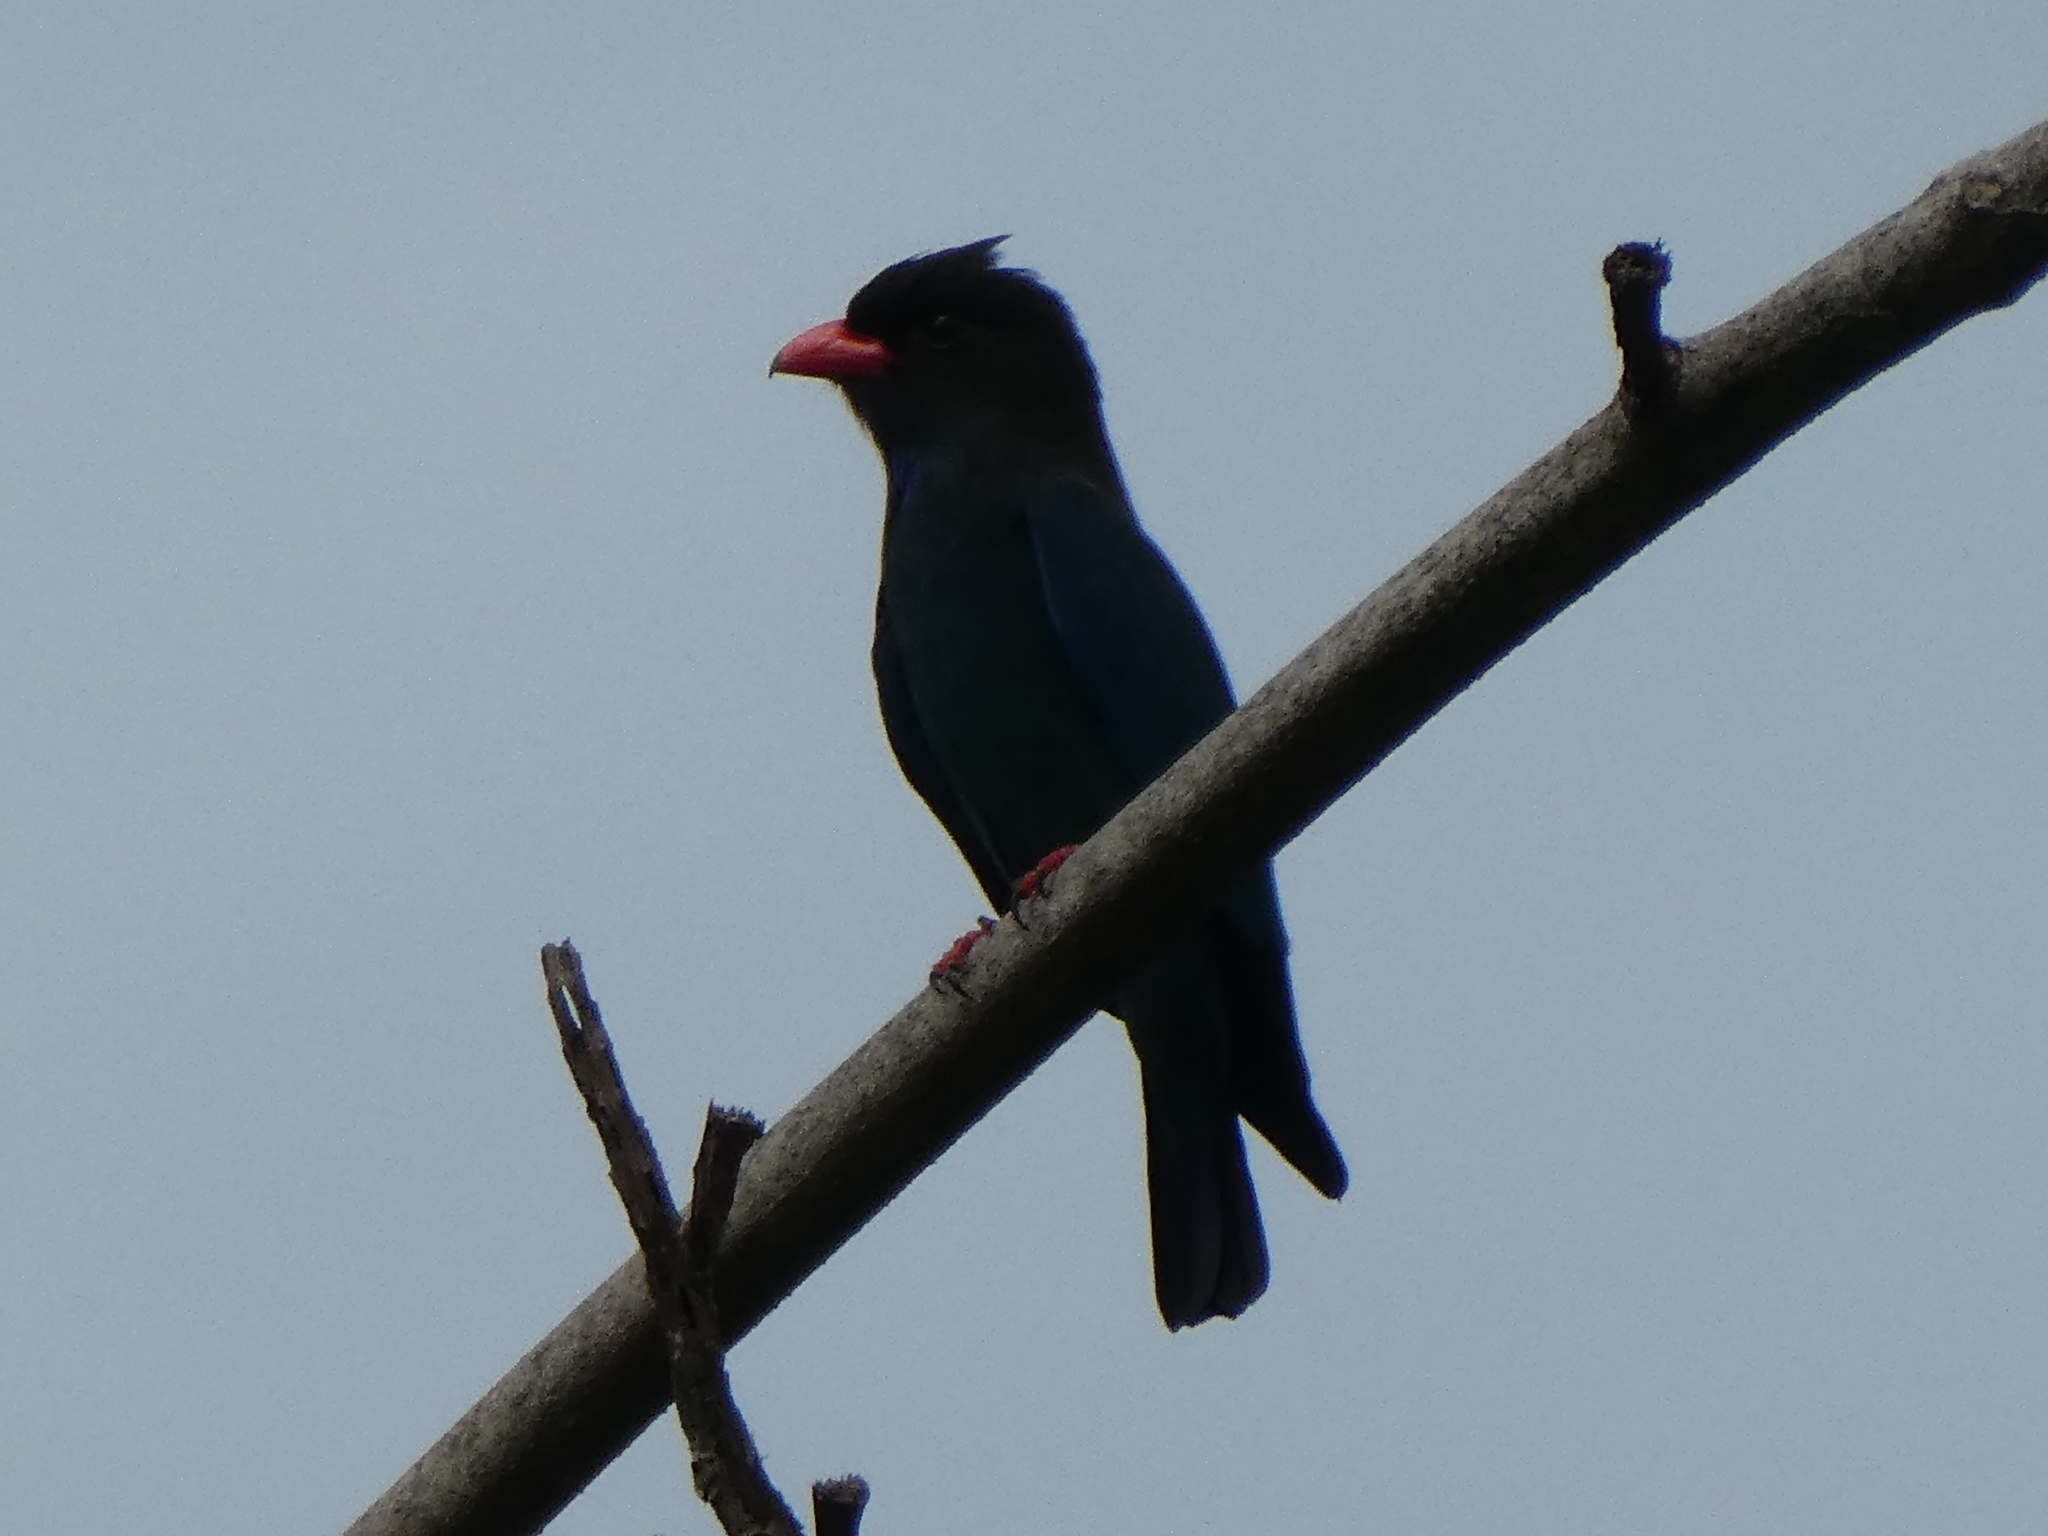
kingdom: Animalia
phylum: Chordata
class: Aves
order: Coraciiformes
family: Coraciidae
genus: Eurystomus
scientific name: Eurystomus orientalis
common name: Oriental dollarbird
